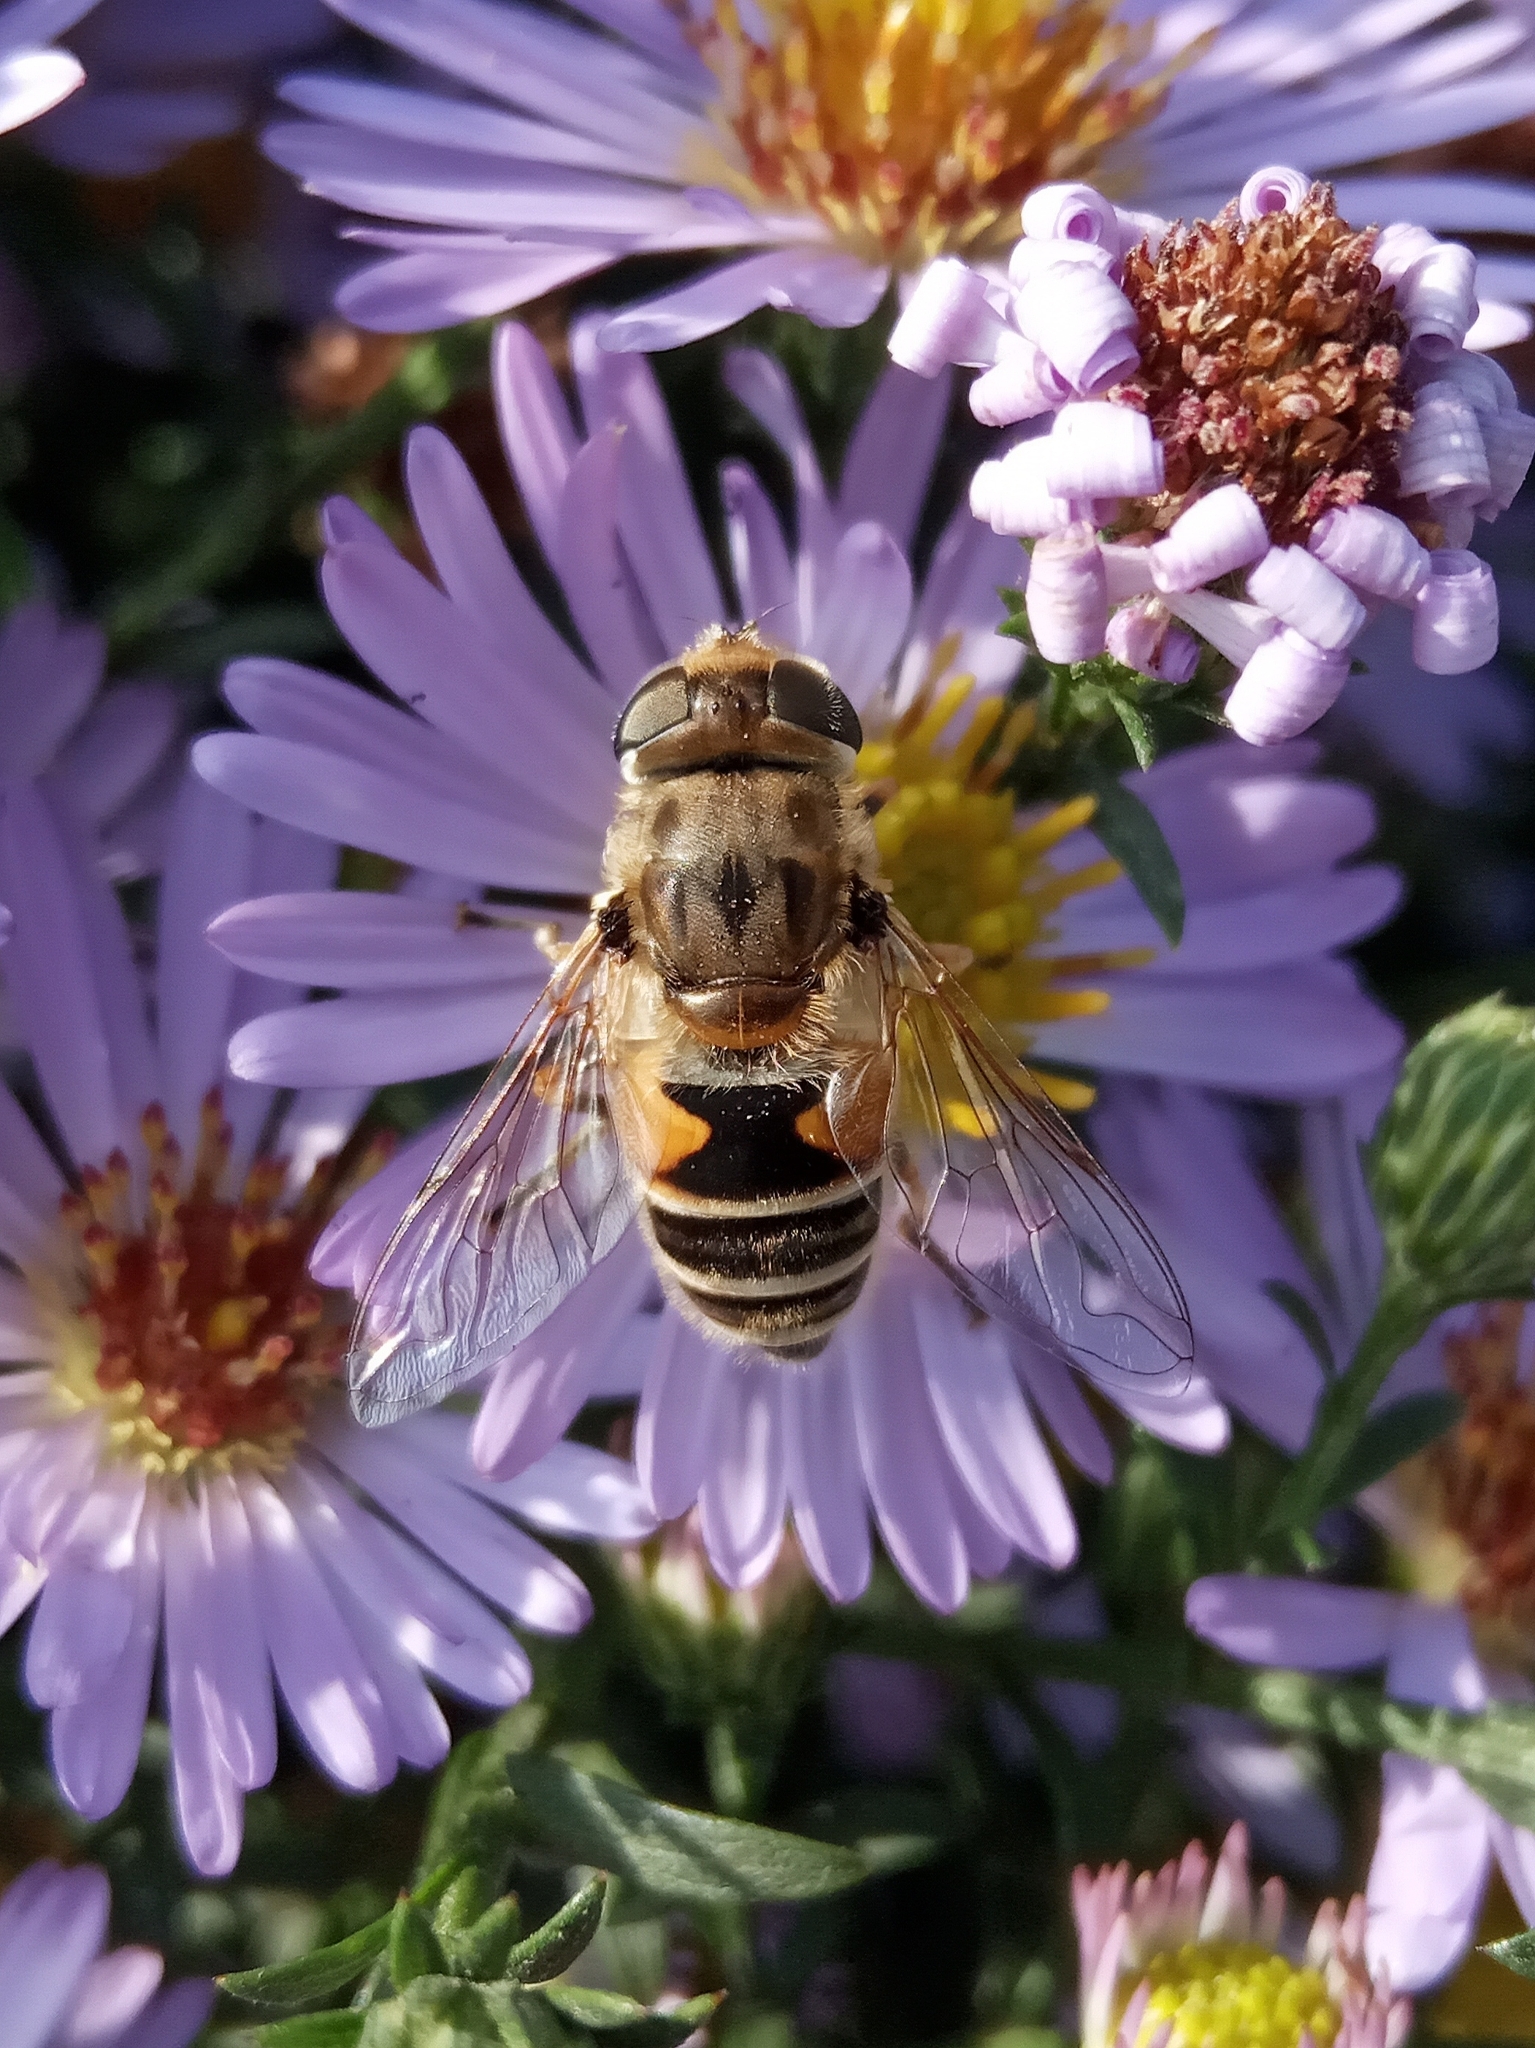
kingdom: Animalia
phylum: Arthropoda
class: Insecta
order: Diptera
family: Syrphidae
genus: Eristalis
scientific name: Eristalis arbustorum
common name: Hover fly
